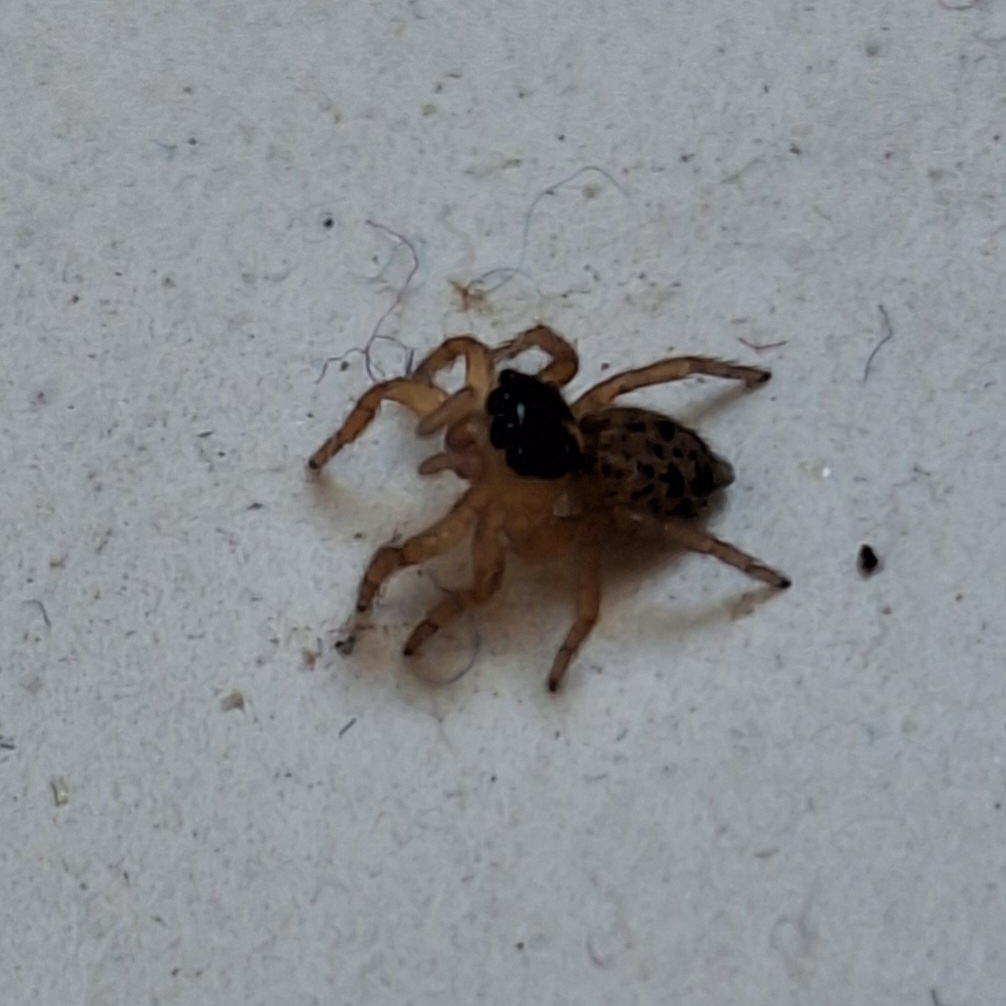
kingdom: Animalia
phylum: Arthropoda
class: Arachnida
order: Araneae
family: Salticidae
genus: Saitis
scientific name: Saitis barbipes
